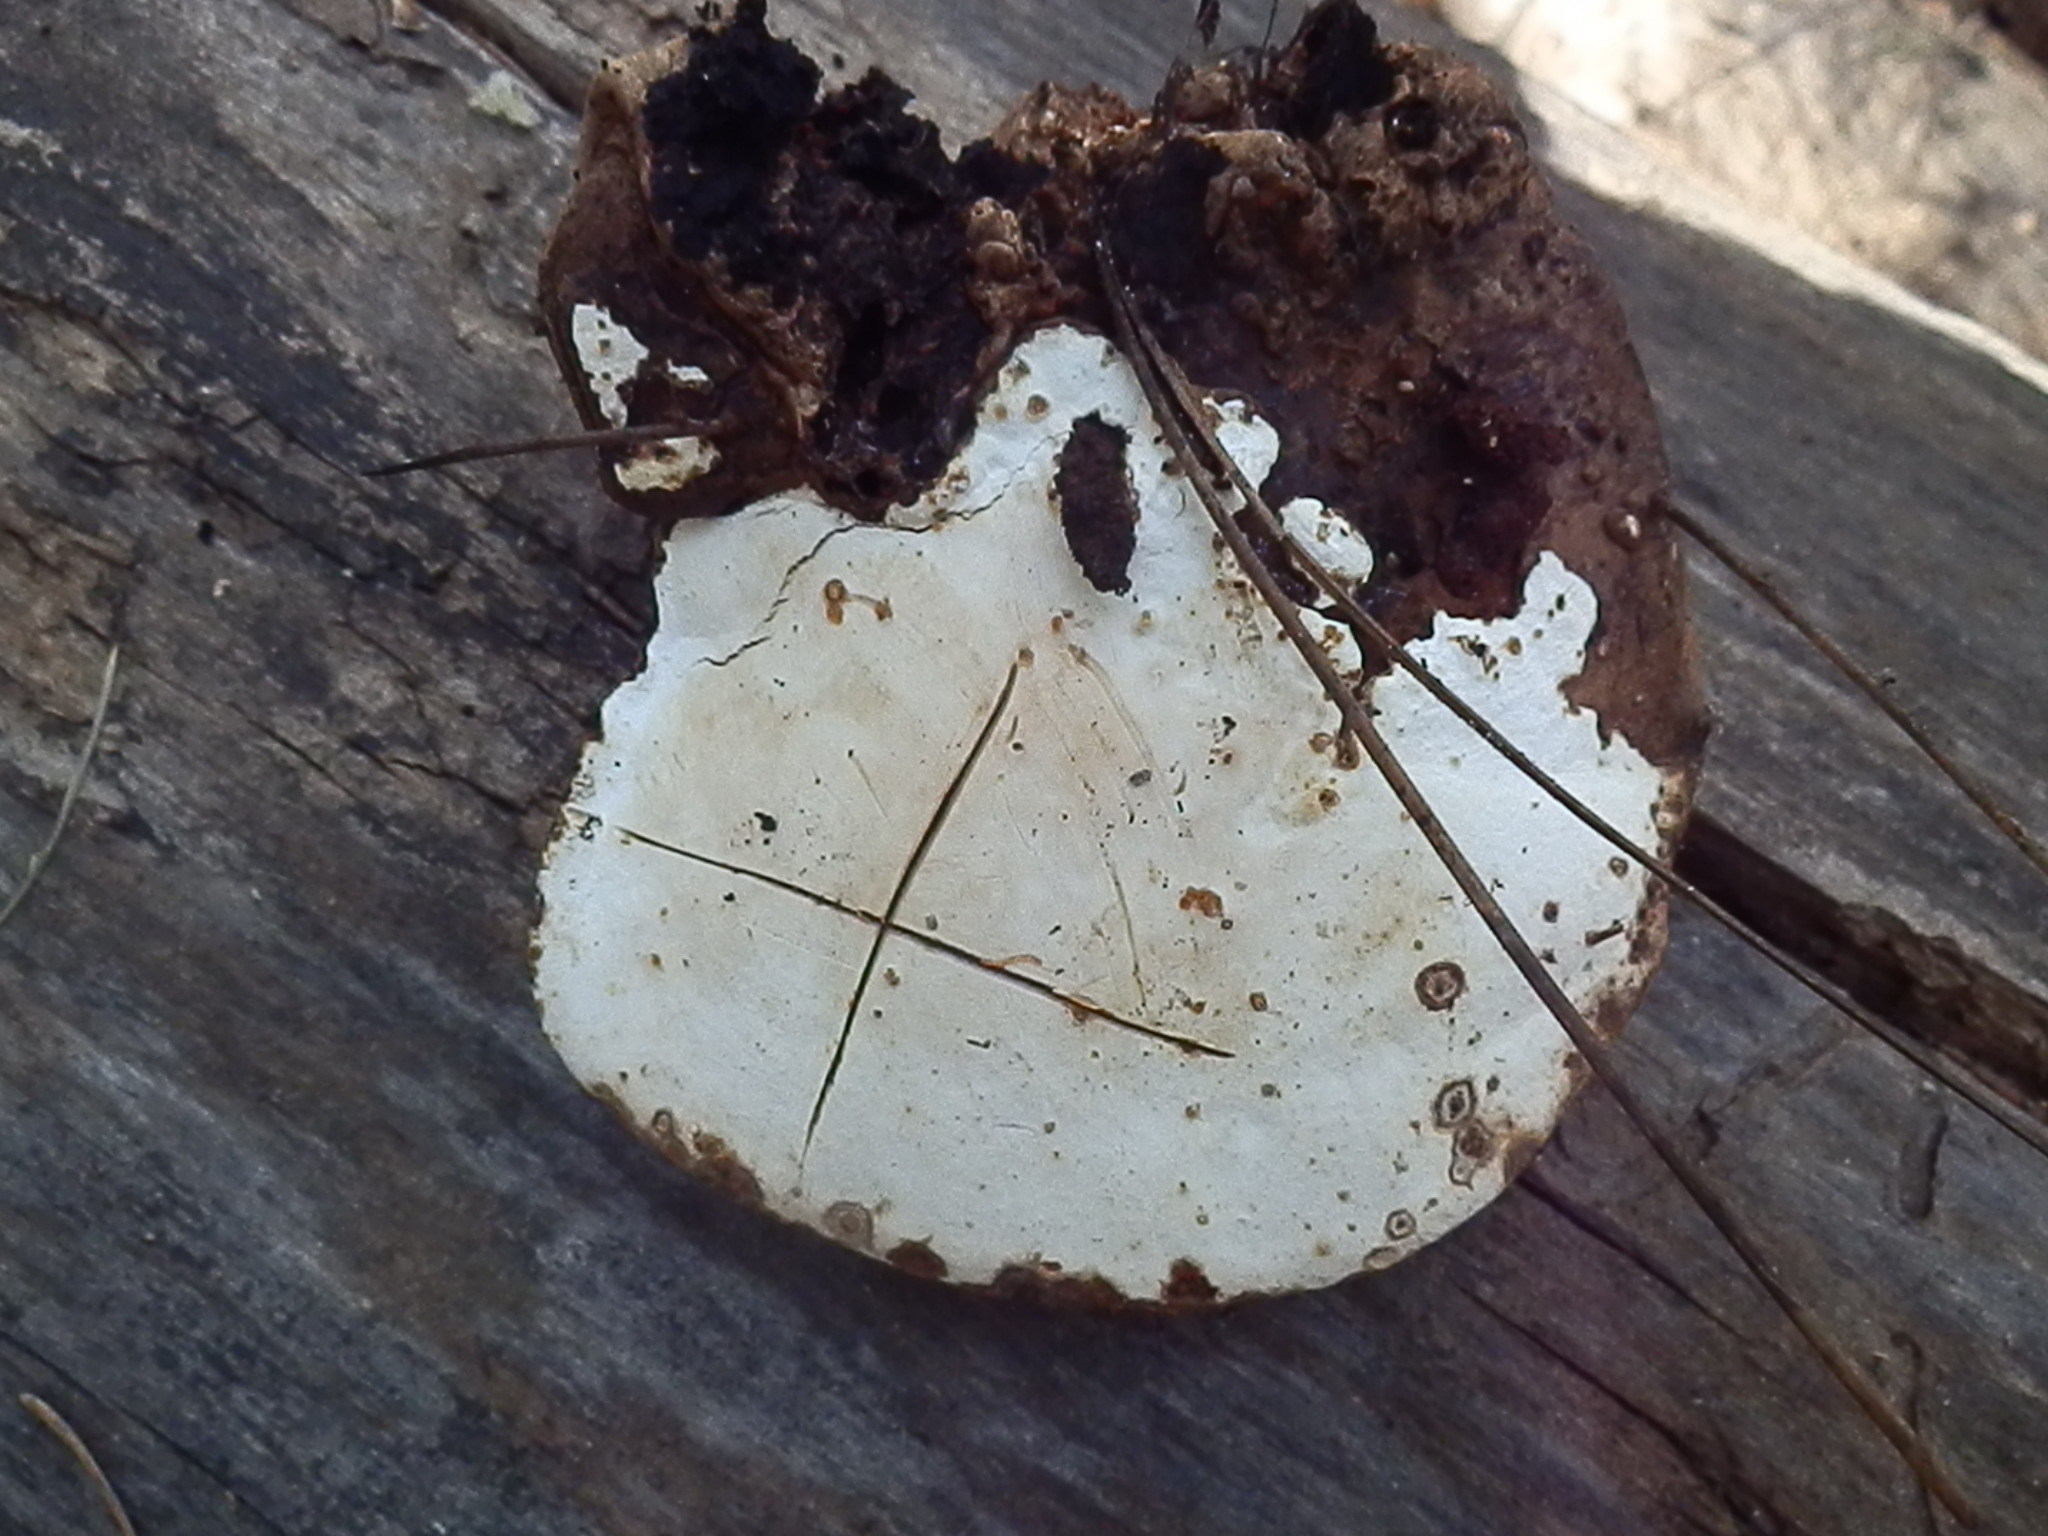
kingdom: Fungi
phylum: Basidiomycota
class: Agaricomycetes
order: Polyporales
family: Polyporaceae
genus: Ganoderma
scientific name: Ganoderma applanatum
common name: Artist's bracket
